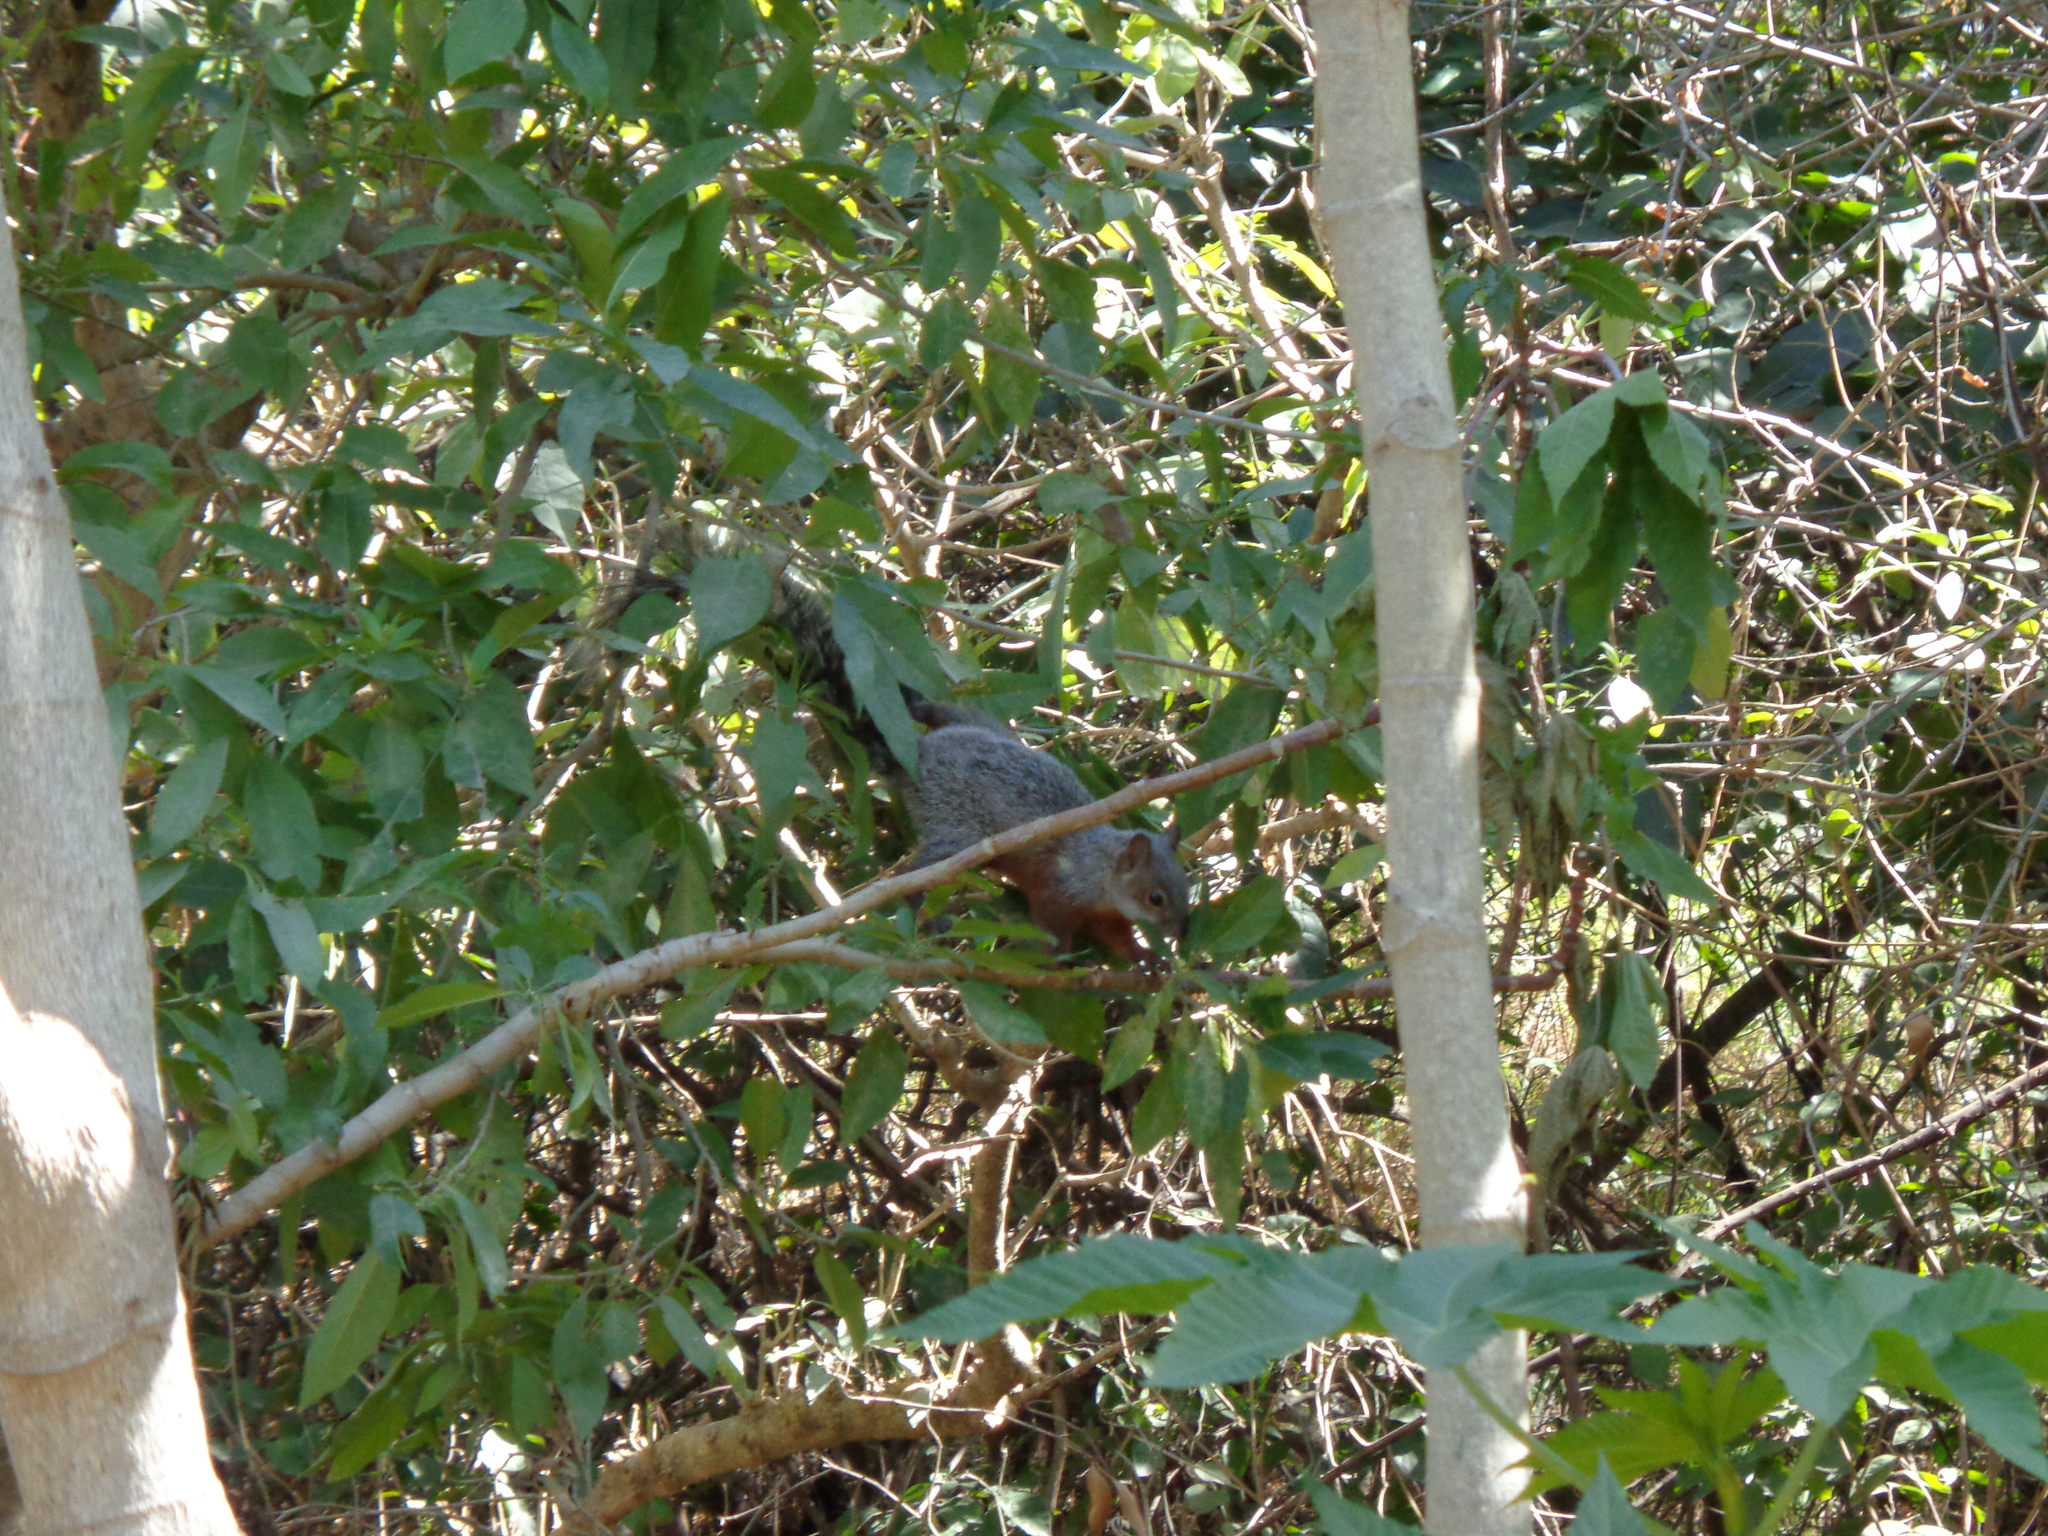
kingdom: Animalia
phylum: Chordata
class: Mammalia
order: Rodentia
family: Sciuridae
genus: Sciurus
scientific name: Sciurus aureogaster
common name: Red-bellied squirrel
